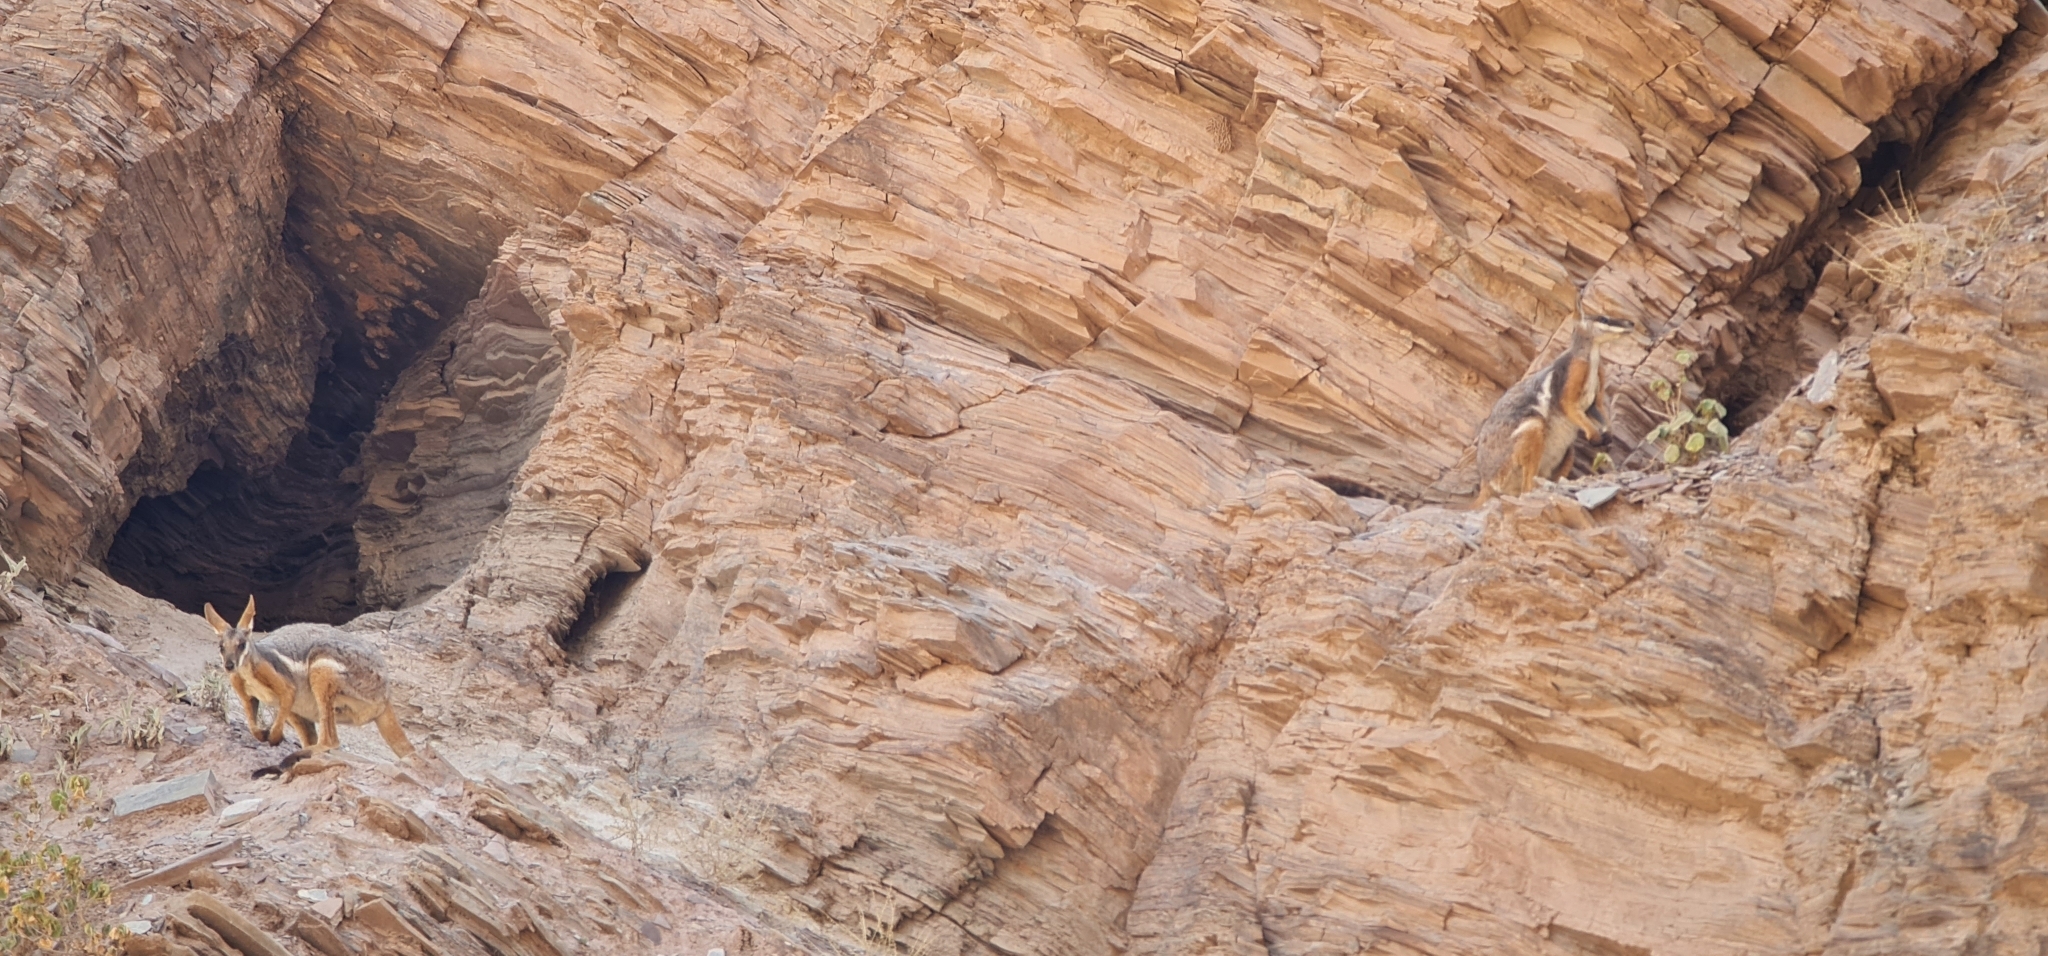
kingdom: Animalia
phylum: Chordata
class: Mammalia
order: Diprotodontia
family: Macropodidae
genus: Petrogale
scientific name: Petrogale xanthopus
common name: Yellow-footed rock-wallaby
